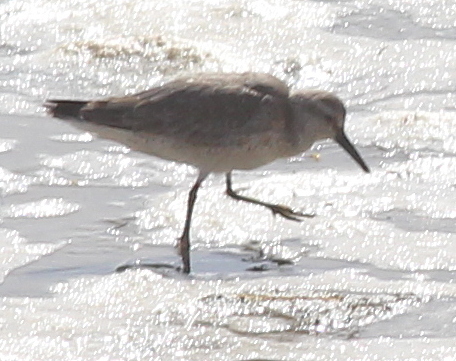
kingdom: Animalia
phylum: Chordata
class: Aves
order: Charadriiformes
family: Scolopacidae
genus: Calidris
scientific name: Calidris canutus
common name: Red knot
